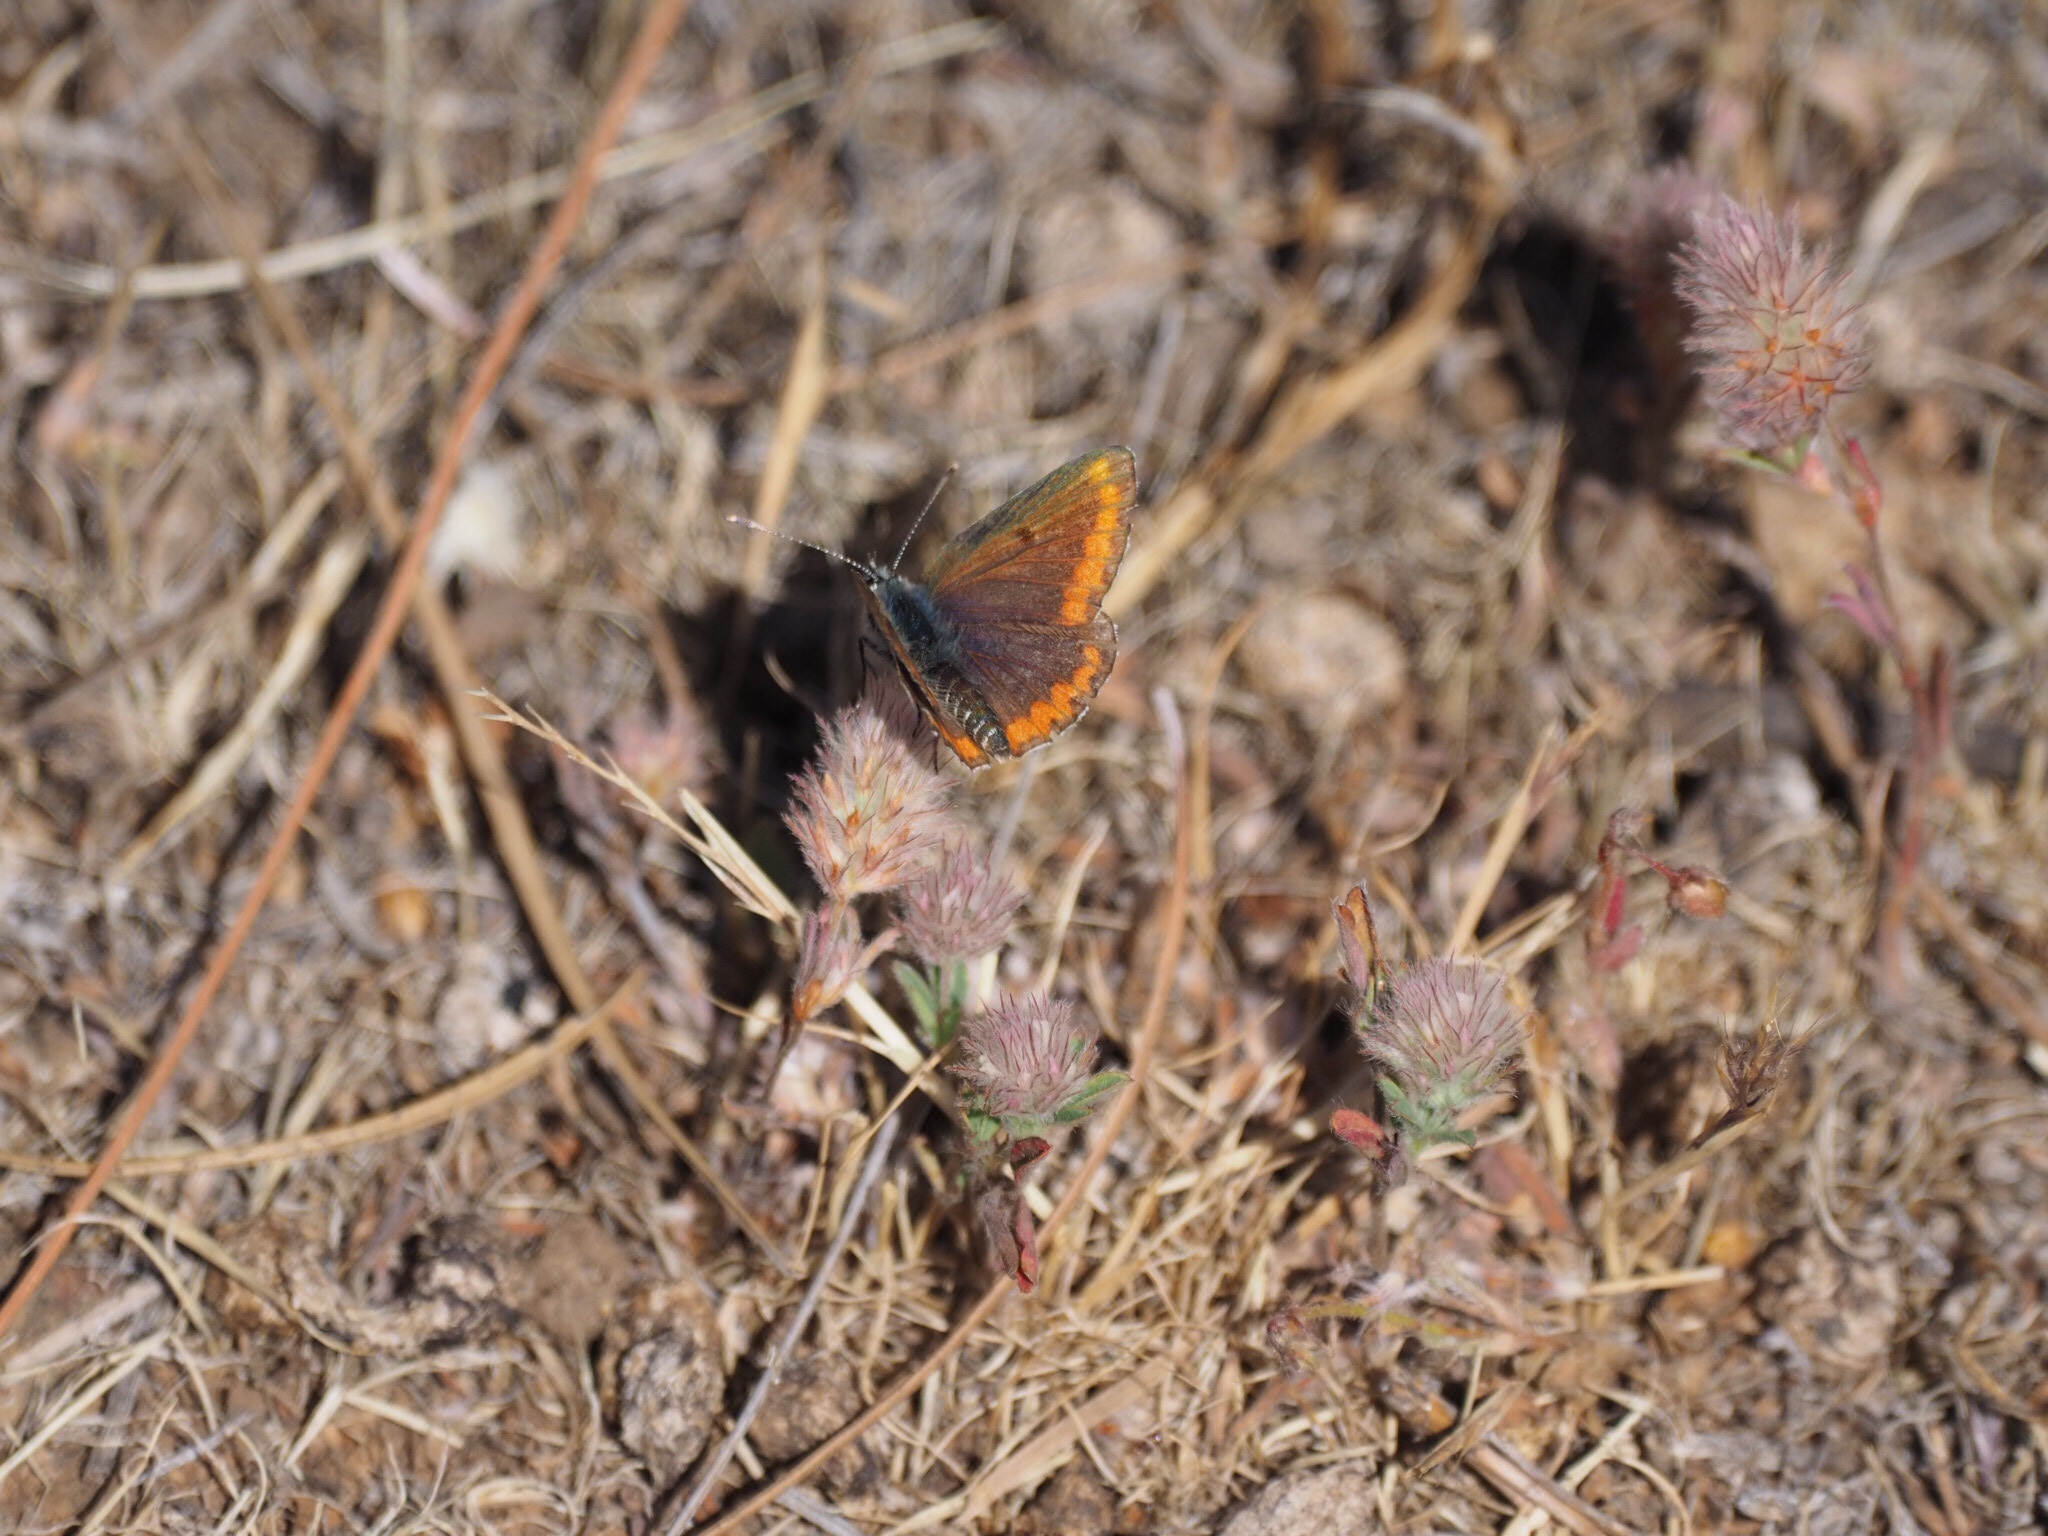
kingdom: Animalia
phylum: Arthropoda
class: Insecta
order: Lepidoptera
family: Lycaenidae
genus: Aricia
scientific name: Aricia cramera
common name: Eschscholtz´s brown  argus
